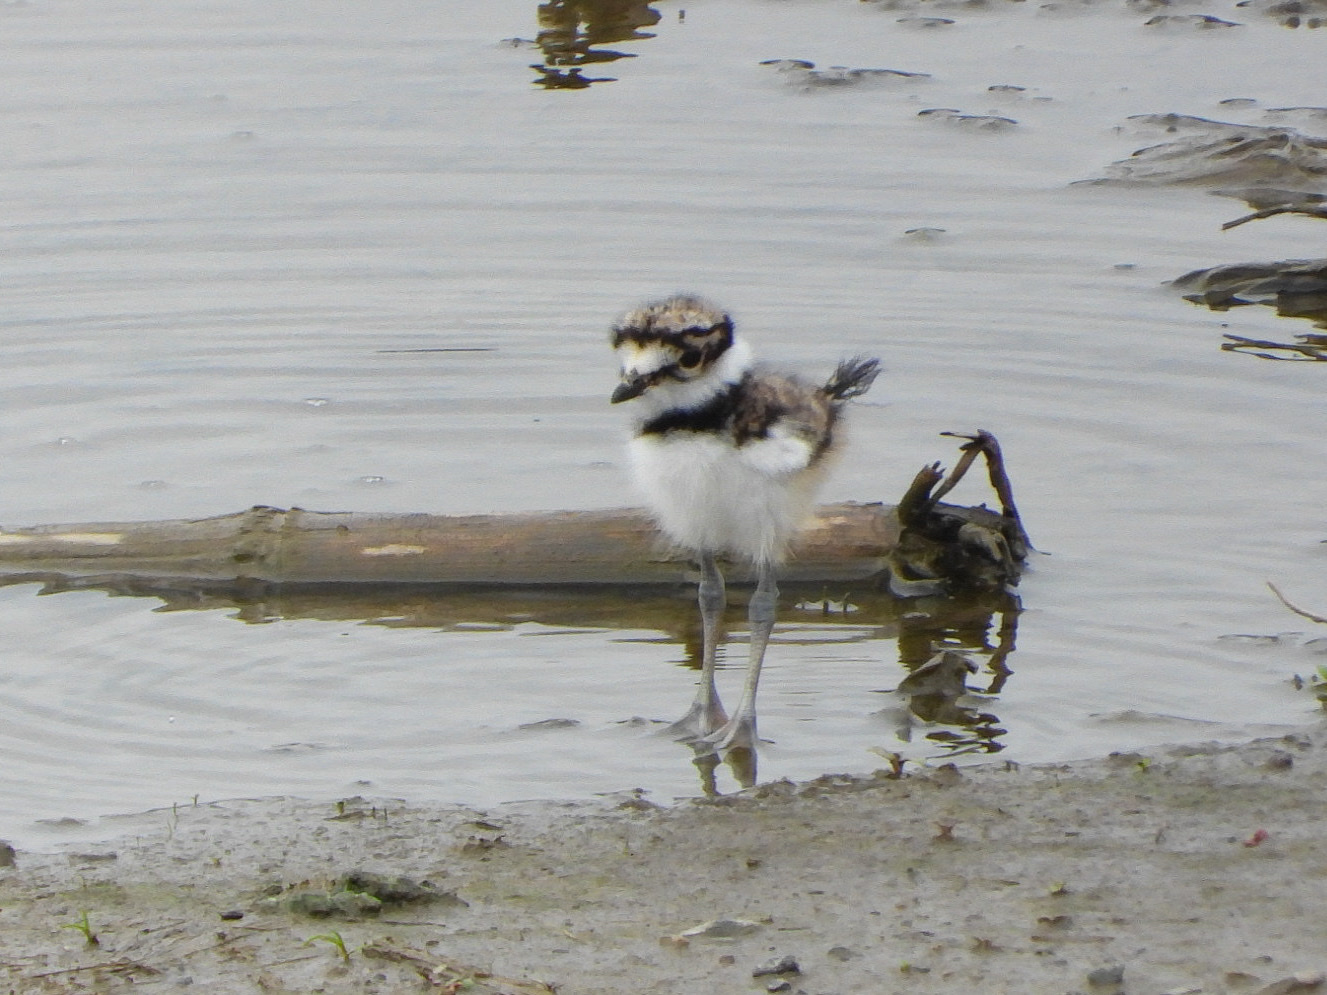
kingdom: Animalia
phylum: Chordata
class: Aves
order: Charadriiformes
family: Charadriidae
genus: Charadrius
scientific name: Charadrius vociferus
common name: Killdeer
